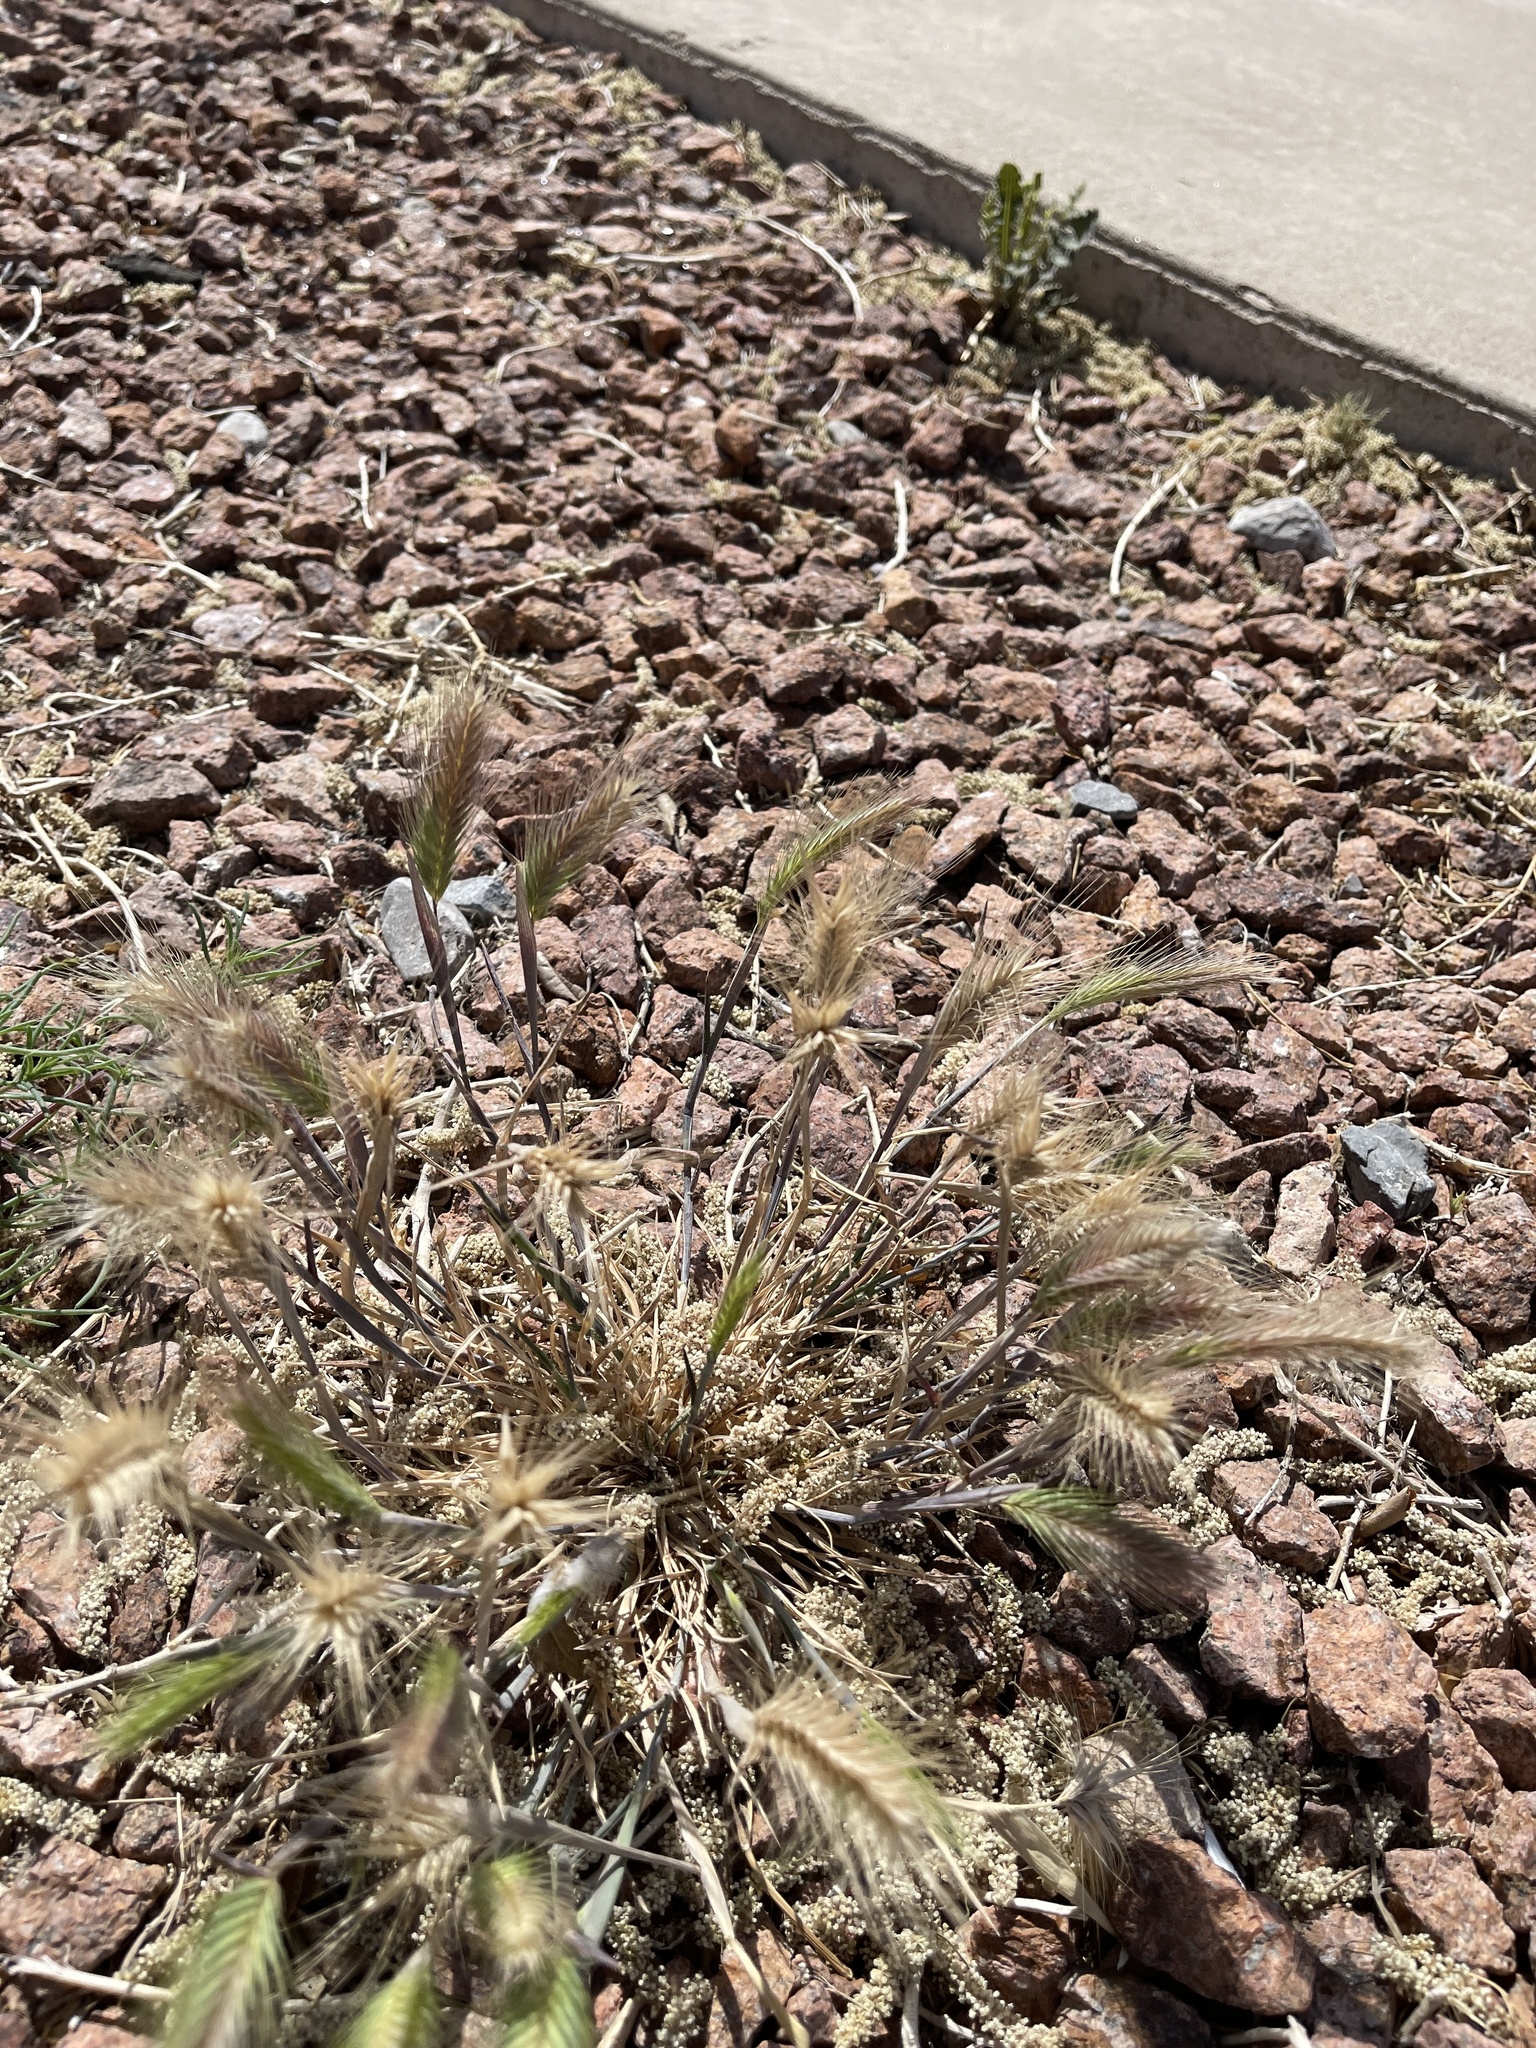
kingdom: Plantae
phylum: Tracheophyta
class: Liliopsida
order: Poales
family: Poaceae
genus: Hordeum
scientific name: Hordeum murinum
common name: Wall barley
